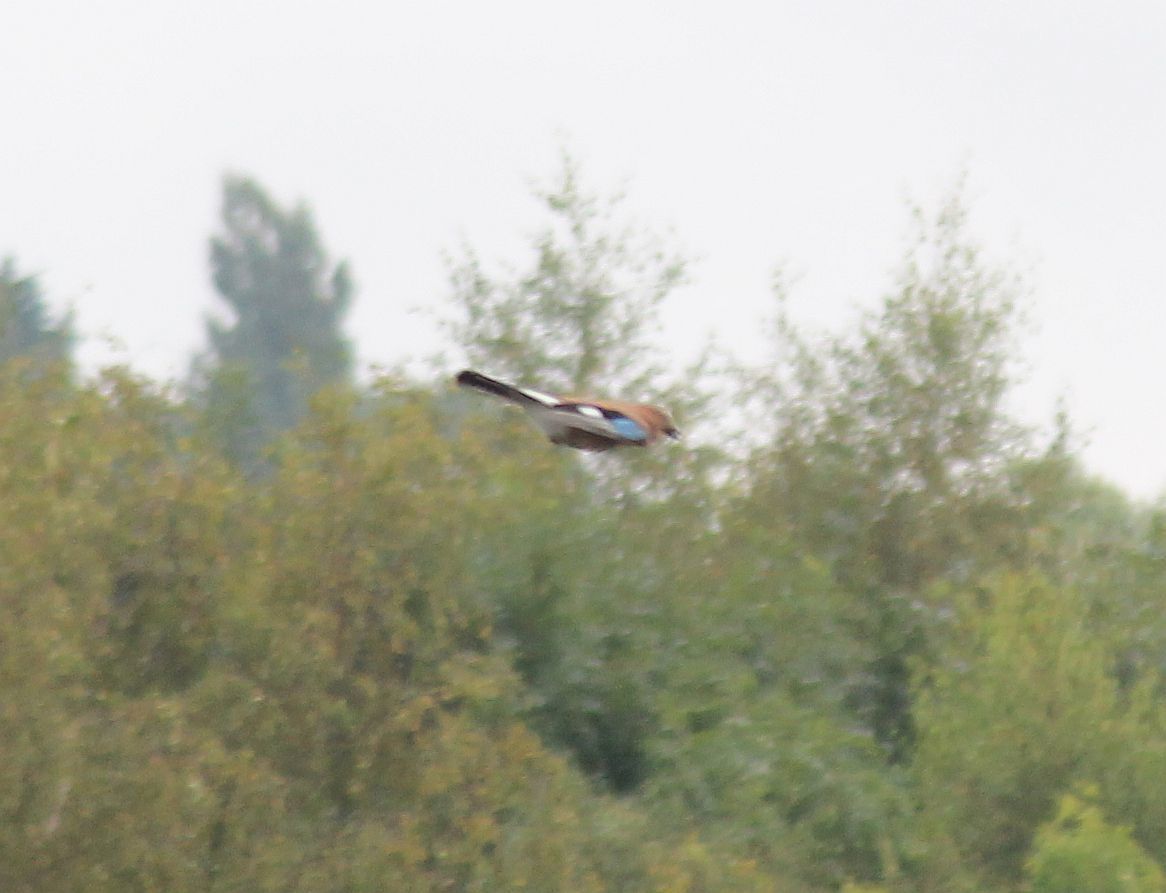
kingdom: Animalia
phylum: Chordata
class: Aves
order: Passeriformes
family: Corvidae
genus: Garrulus
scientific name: Garrulus glandarius
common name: Eurasian jay
